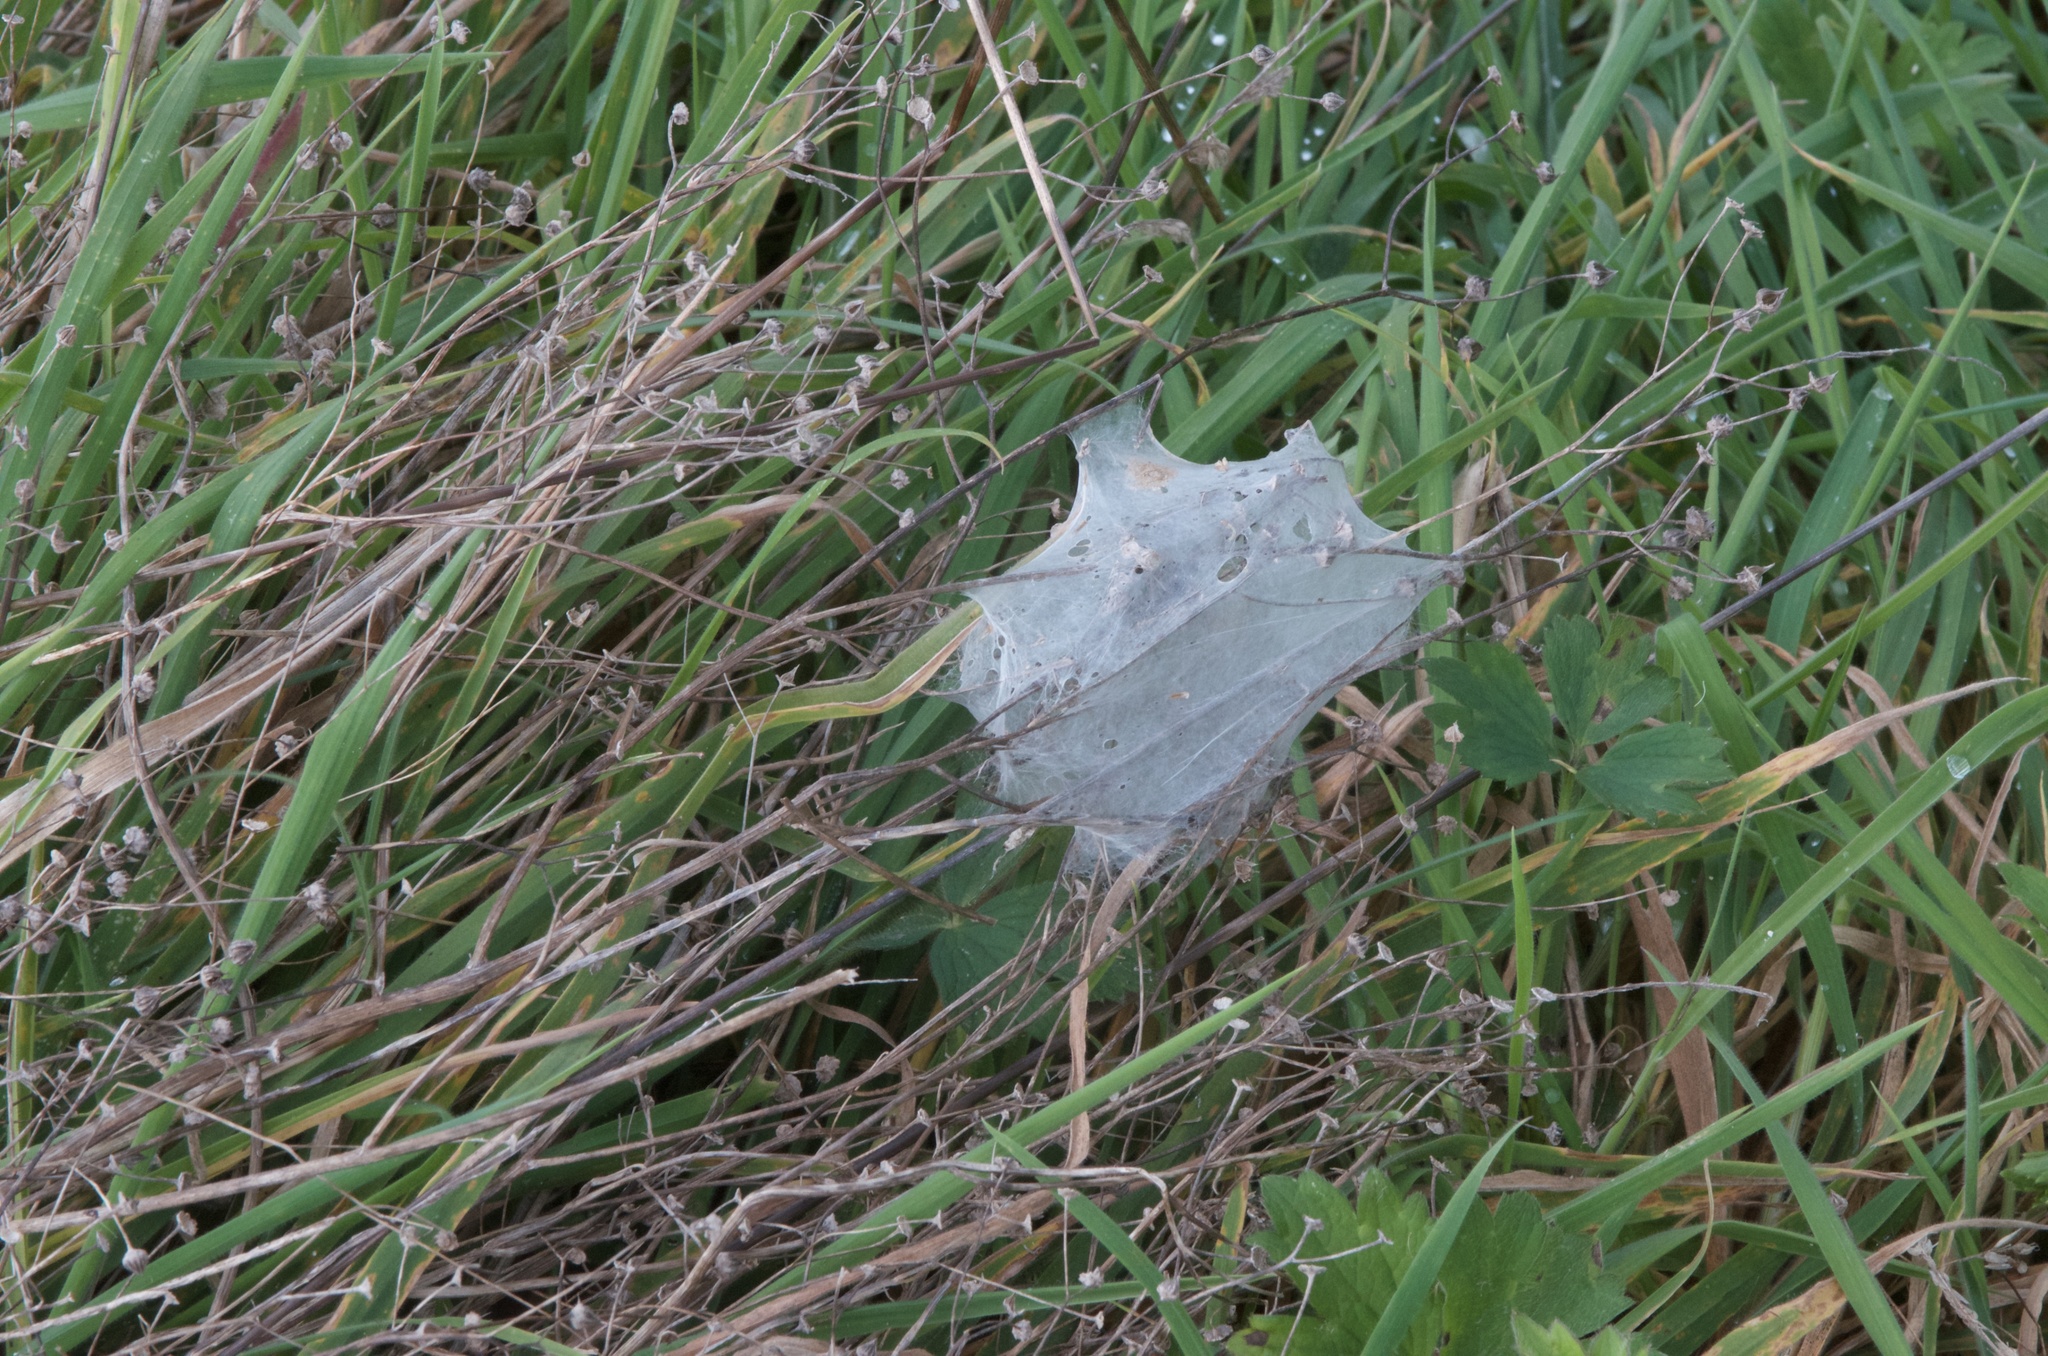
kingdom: Animalia
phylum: Arthropoda
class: Arachnida
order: Araneae
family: Pisauridae
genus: Dolomedes
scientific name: Dolomedes minor
